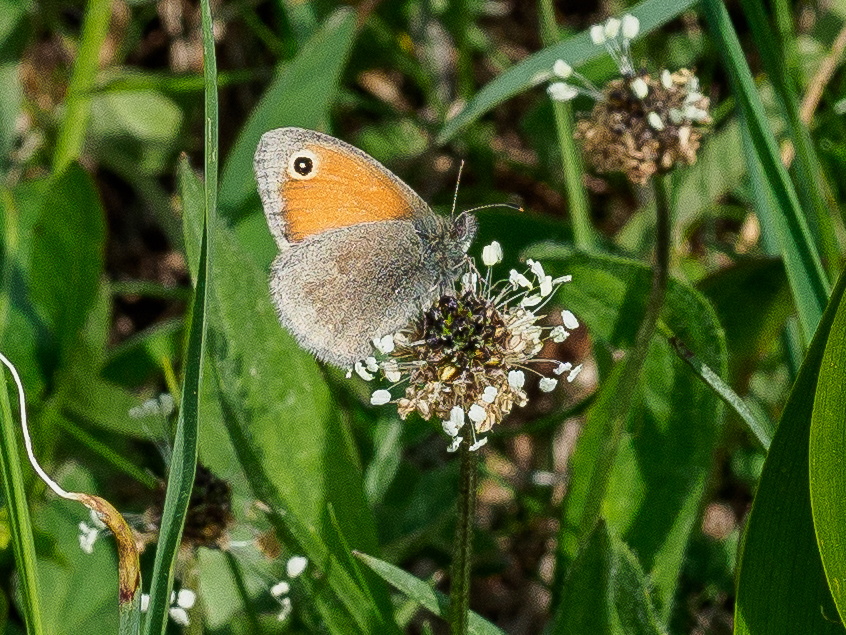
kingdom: Animalia
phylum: Arthropoda
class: Insecta
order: Lepidoptera
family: Nymphalidae
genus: Coenonympha
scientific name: Coenonympha pamphilus
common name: Small heath
